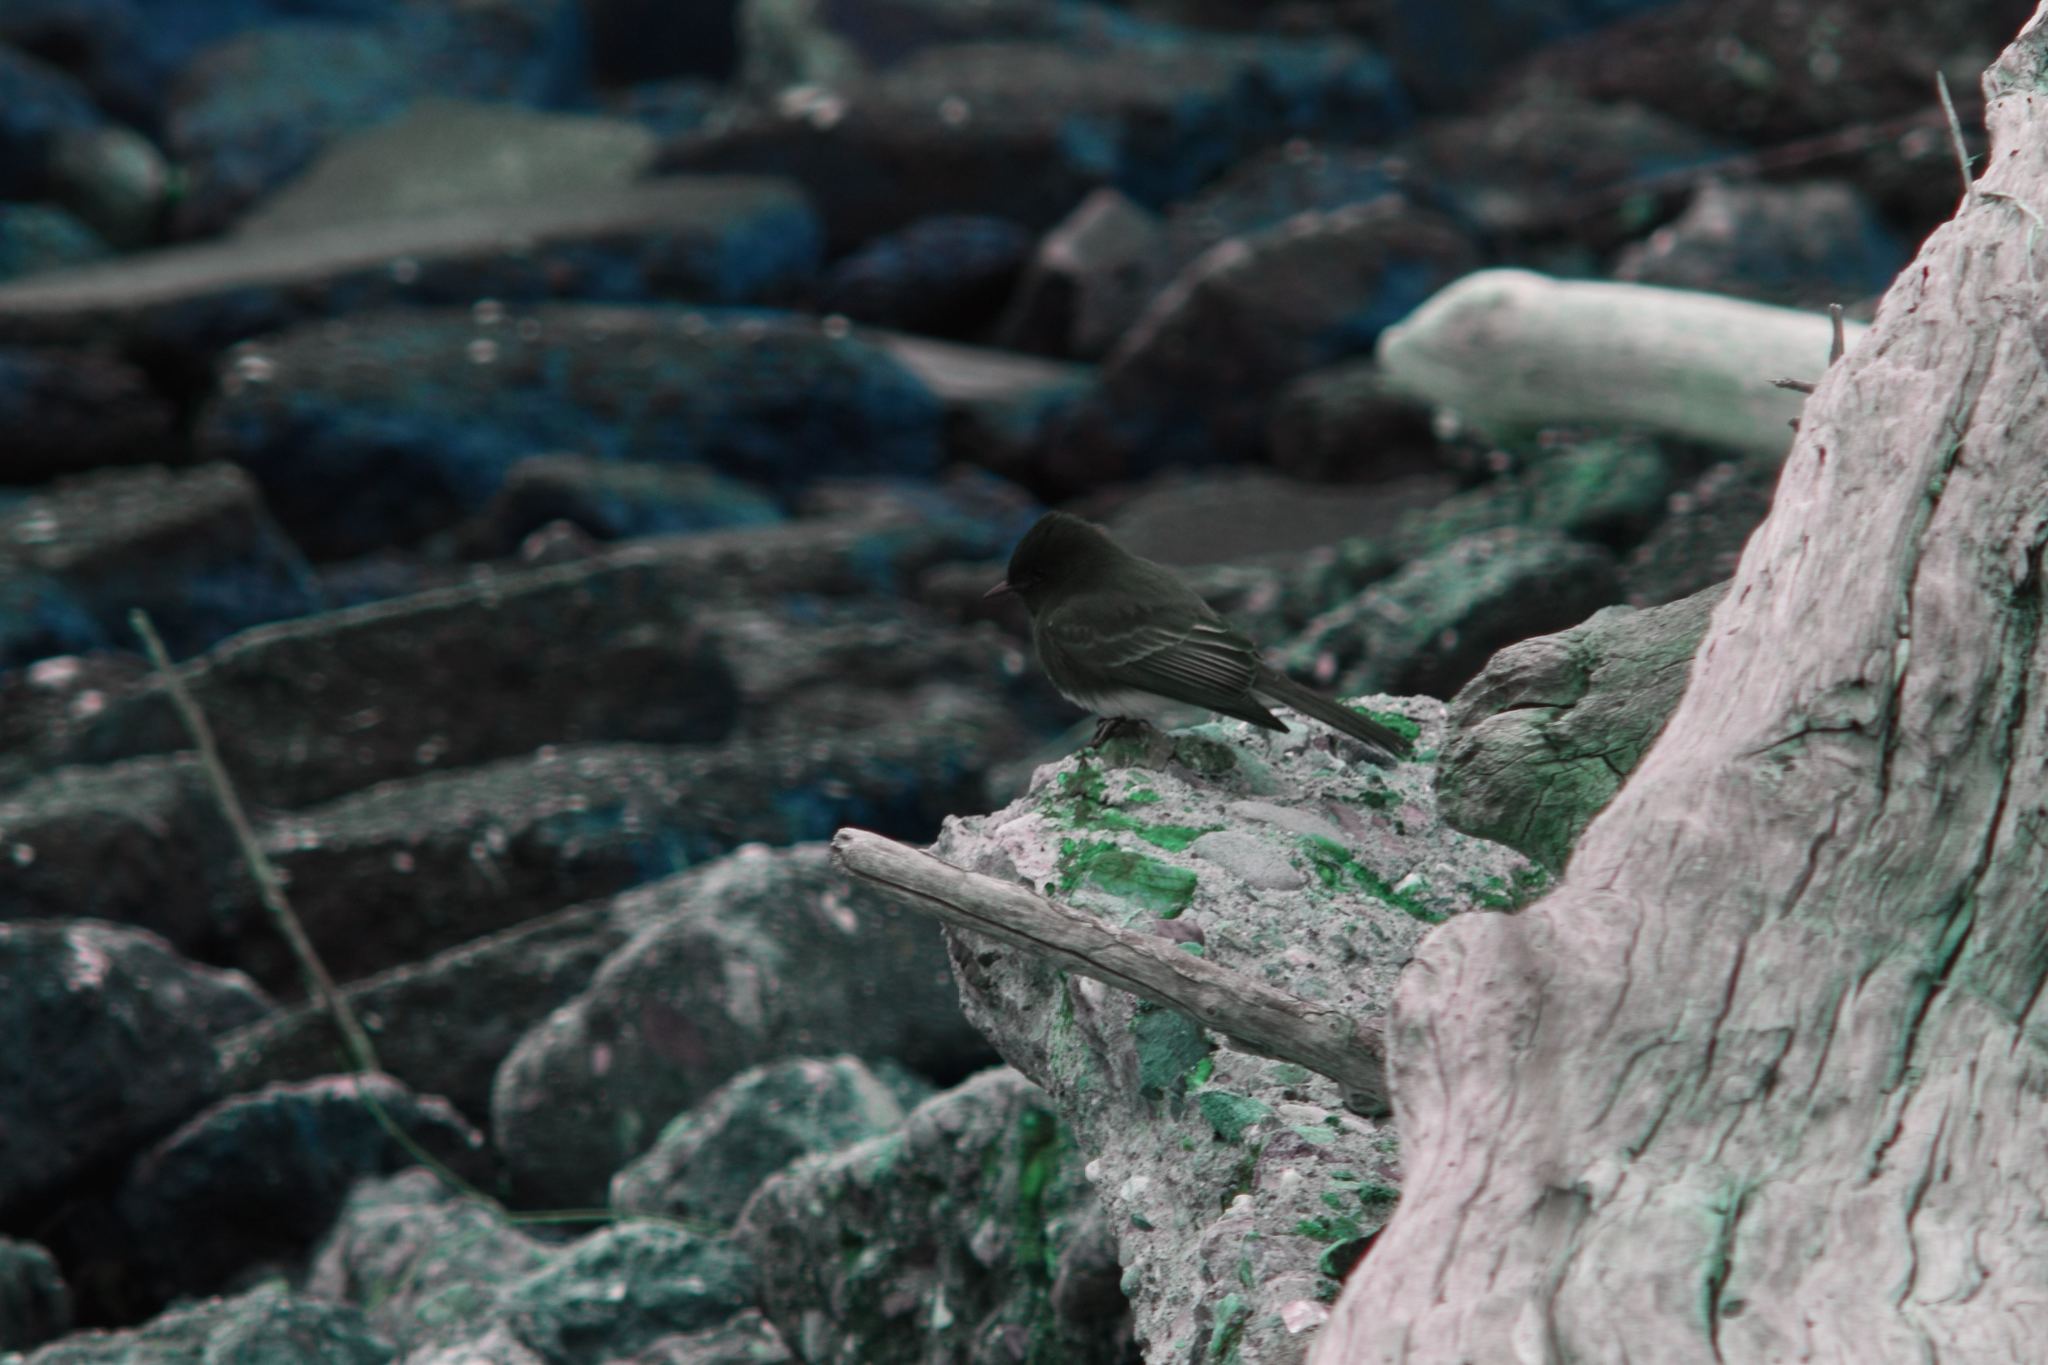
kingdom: Animalia
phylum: Chordata
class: Aves
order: Passeriformes
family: Tyrannidae
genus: Sayornis
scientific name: Sayornis nigricans
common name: Black phoebe
